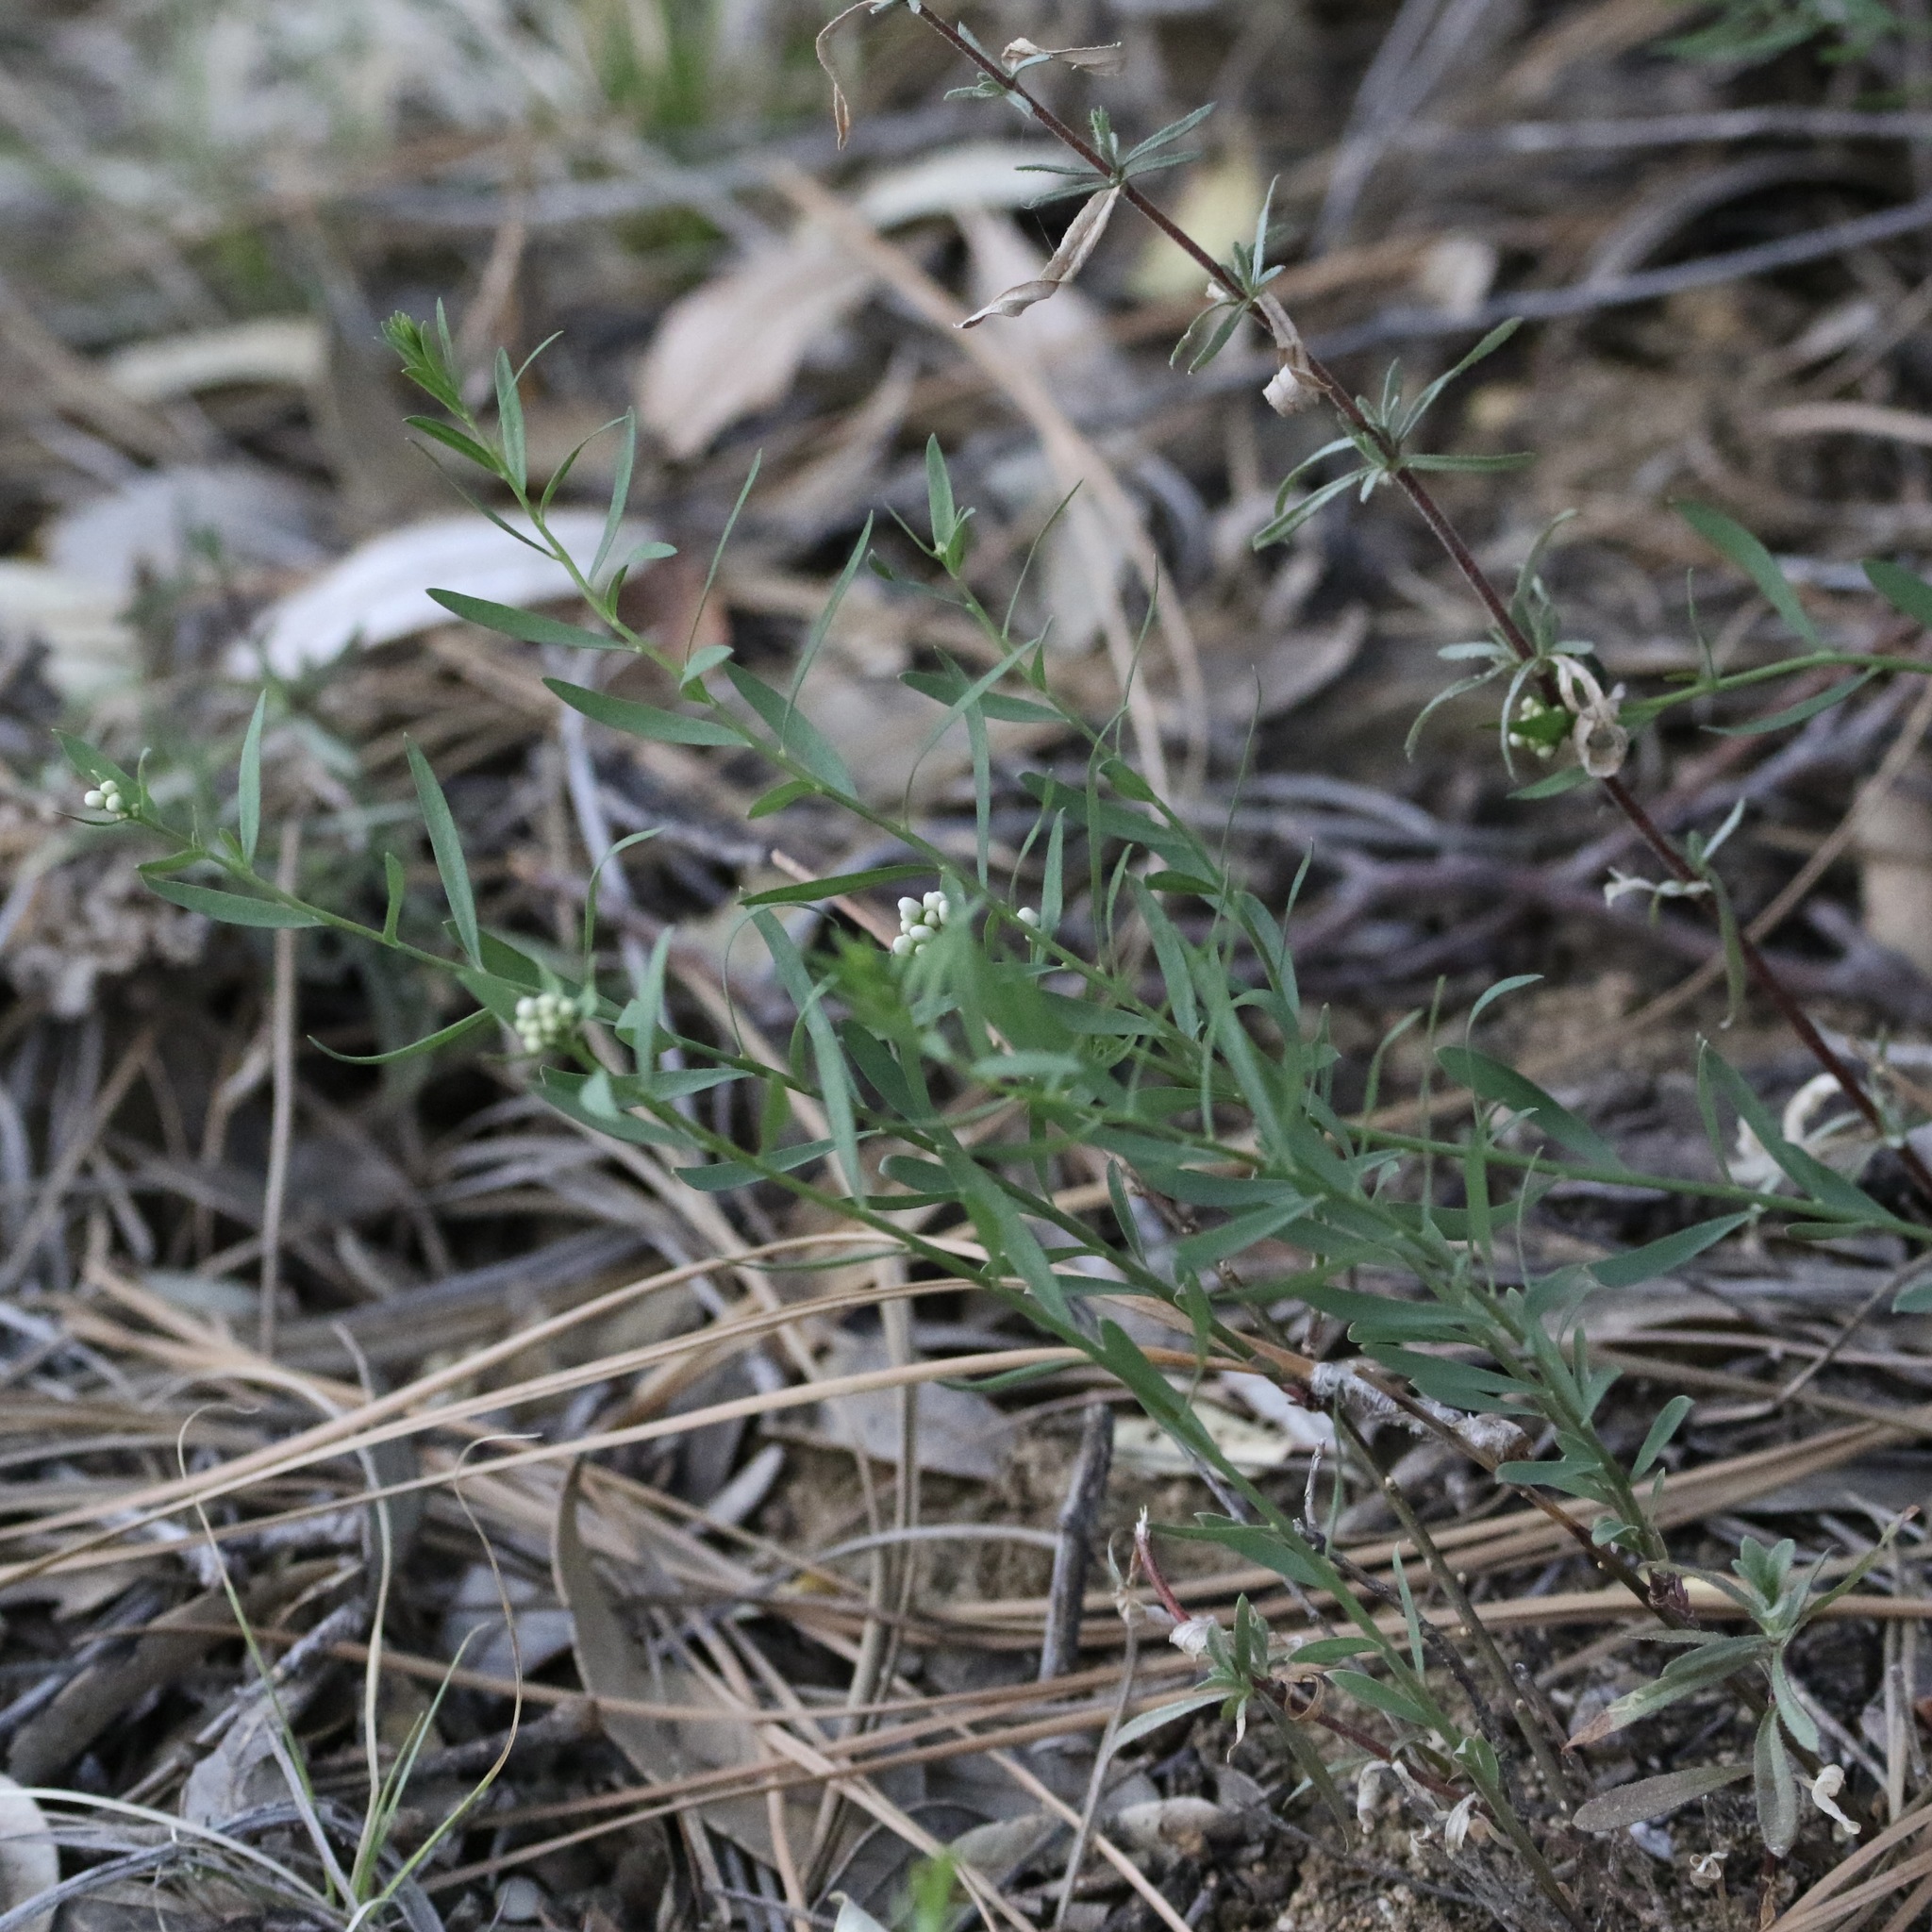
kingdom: Plantae
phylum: Tracheophyta
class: Magnoliopsida
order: Santalales
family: Comandraceae
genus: Comandra
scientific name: Comandra umbellata
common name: Bastard toadflax
